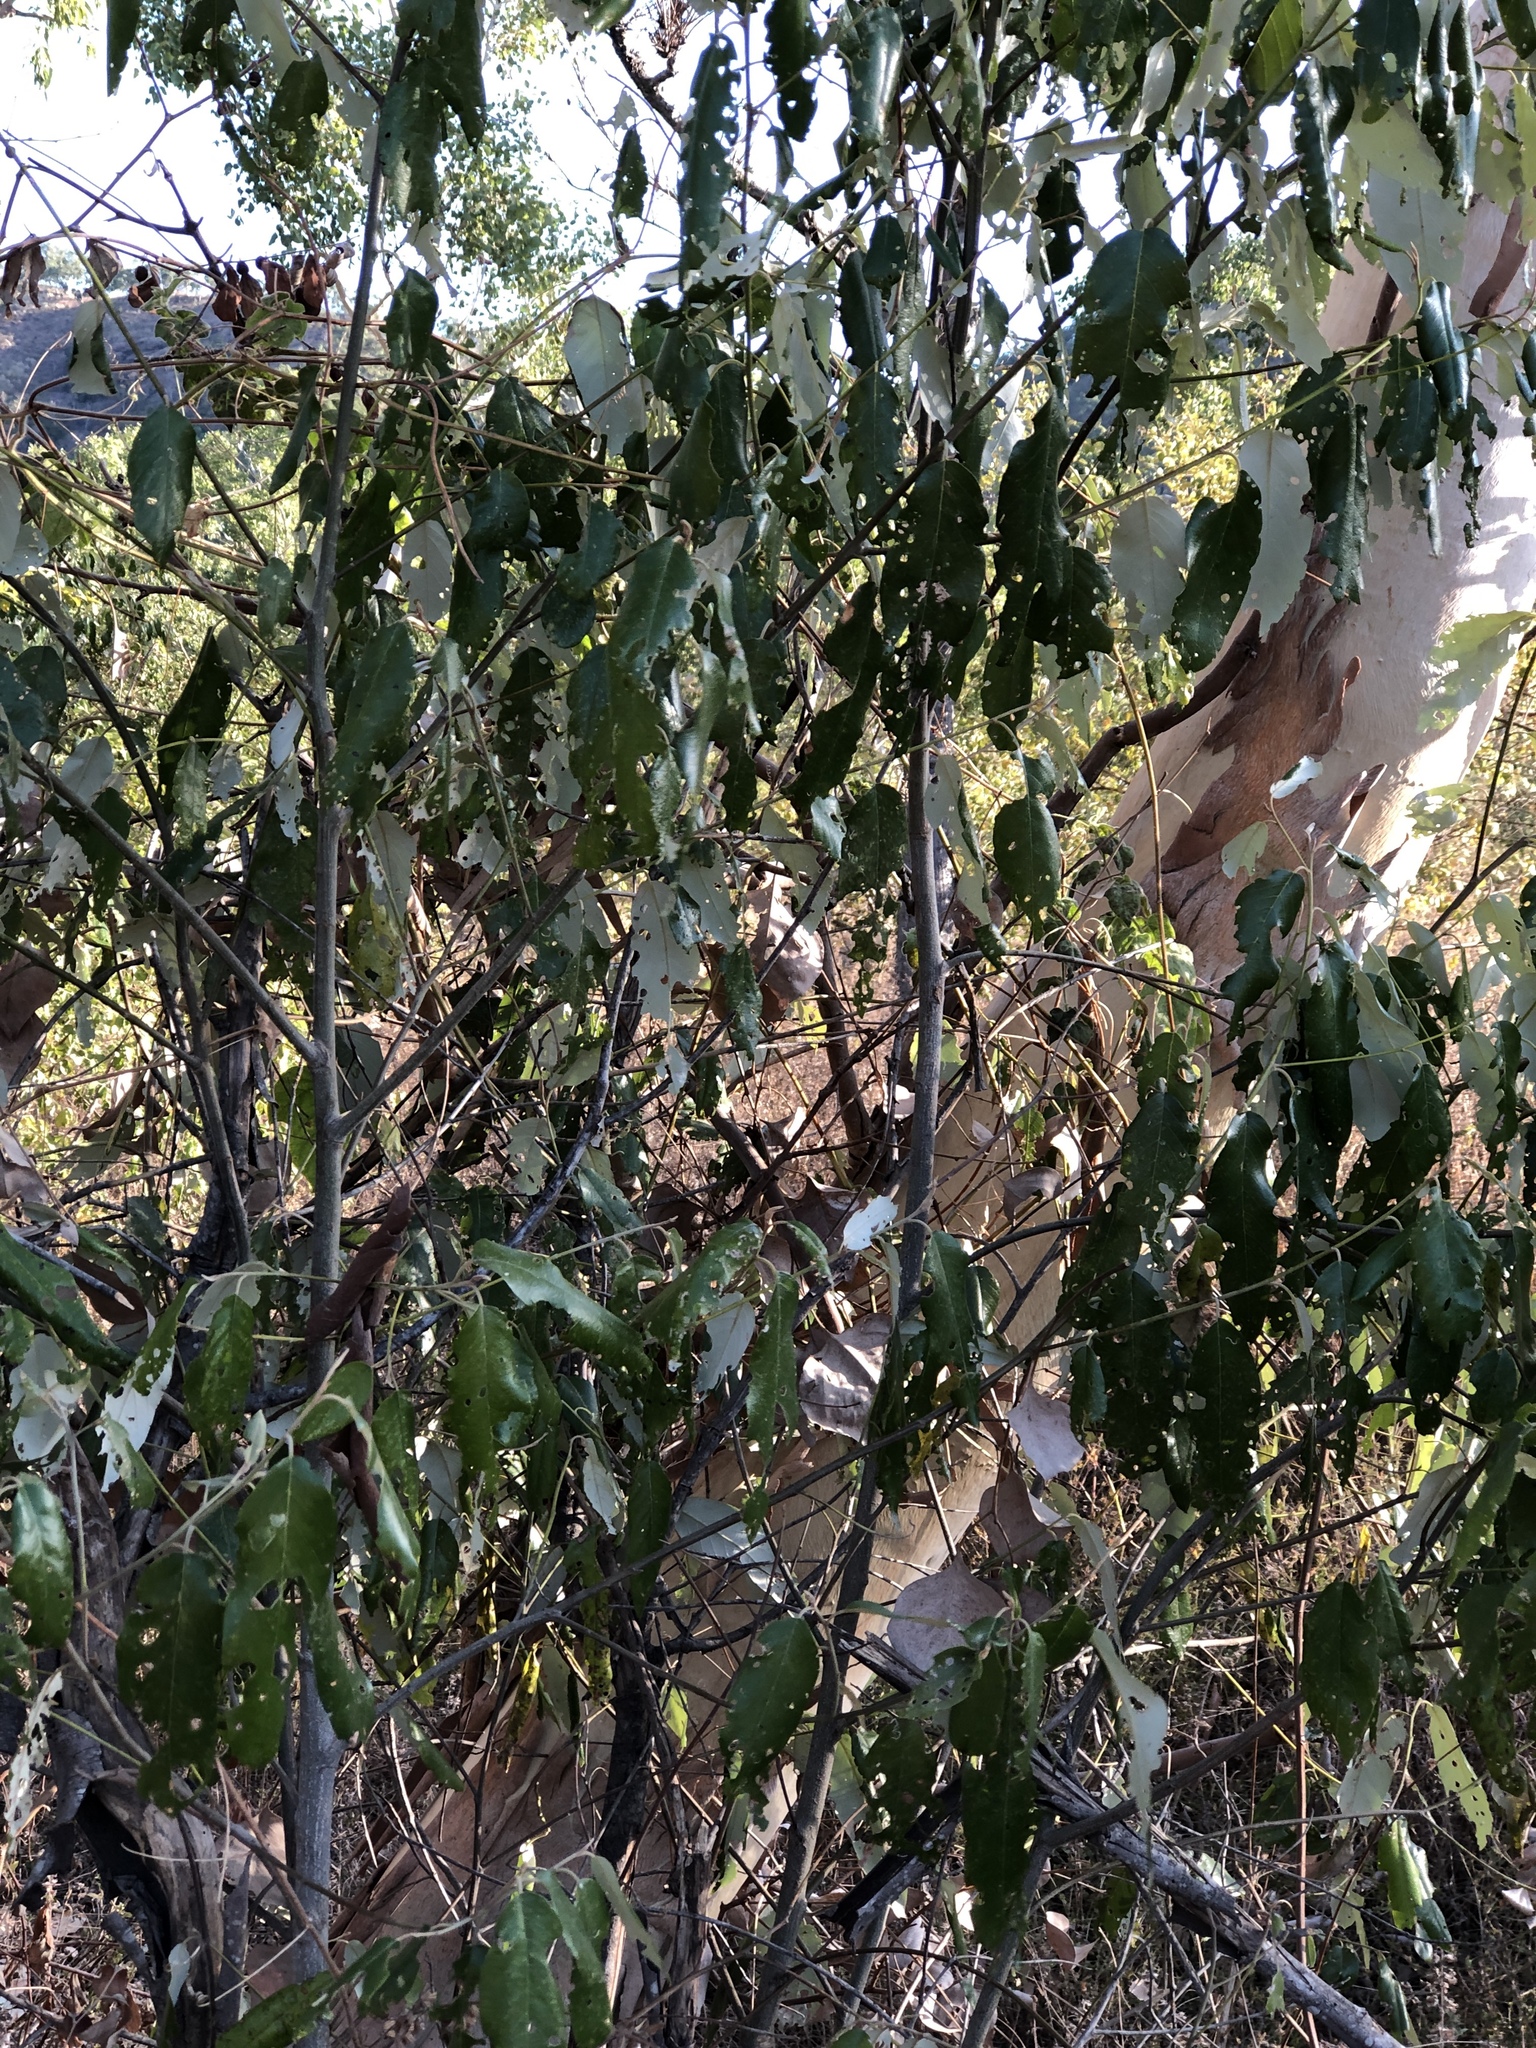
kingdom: Plantae
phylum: Tracheophyta
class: Magnoliopsida
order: Rosales
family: Rhamnaceae
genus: Alphitonia
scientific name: Alphitonia excelsa
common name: Red ash
